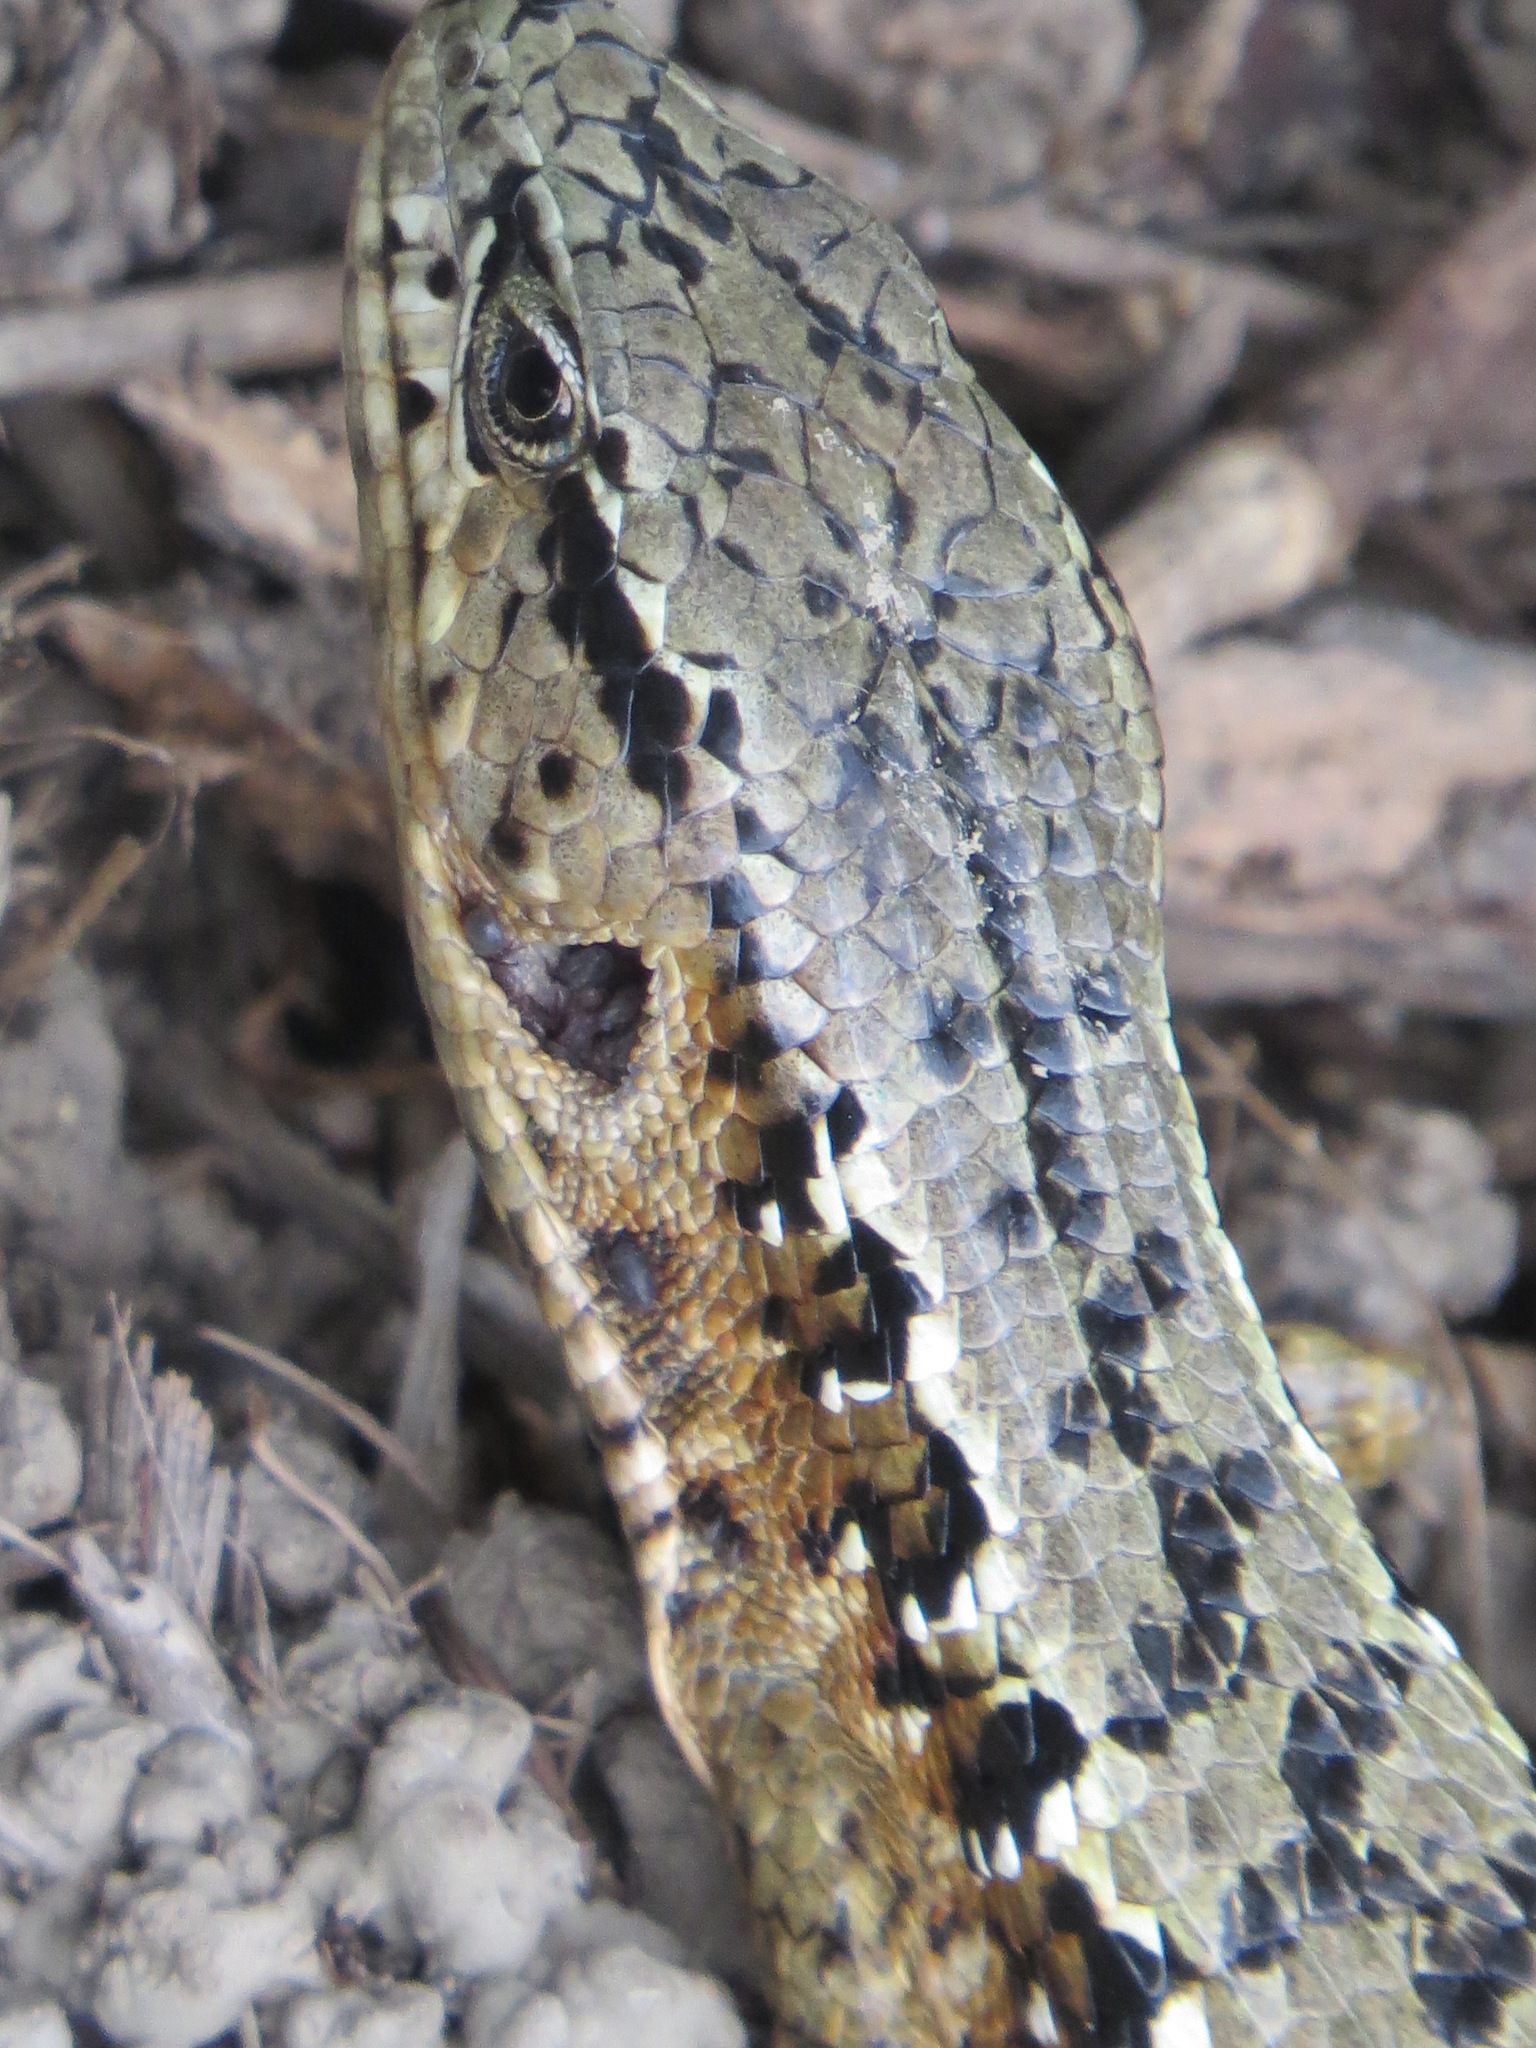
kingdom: Animalia
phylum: Chordata
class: Squamata
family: Anguidae
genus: Elgaria
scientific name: Elgaria coerulea
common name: Northern alligator lizard
